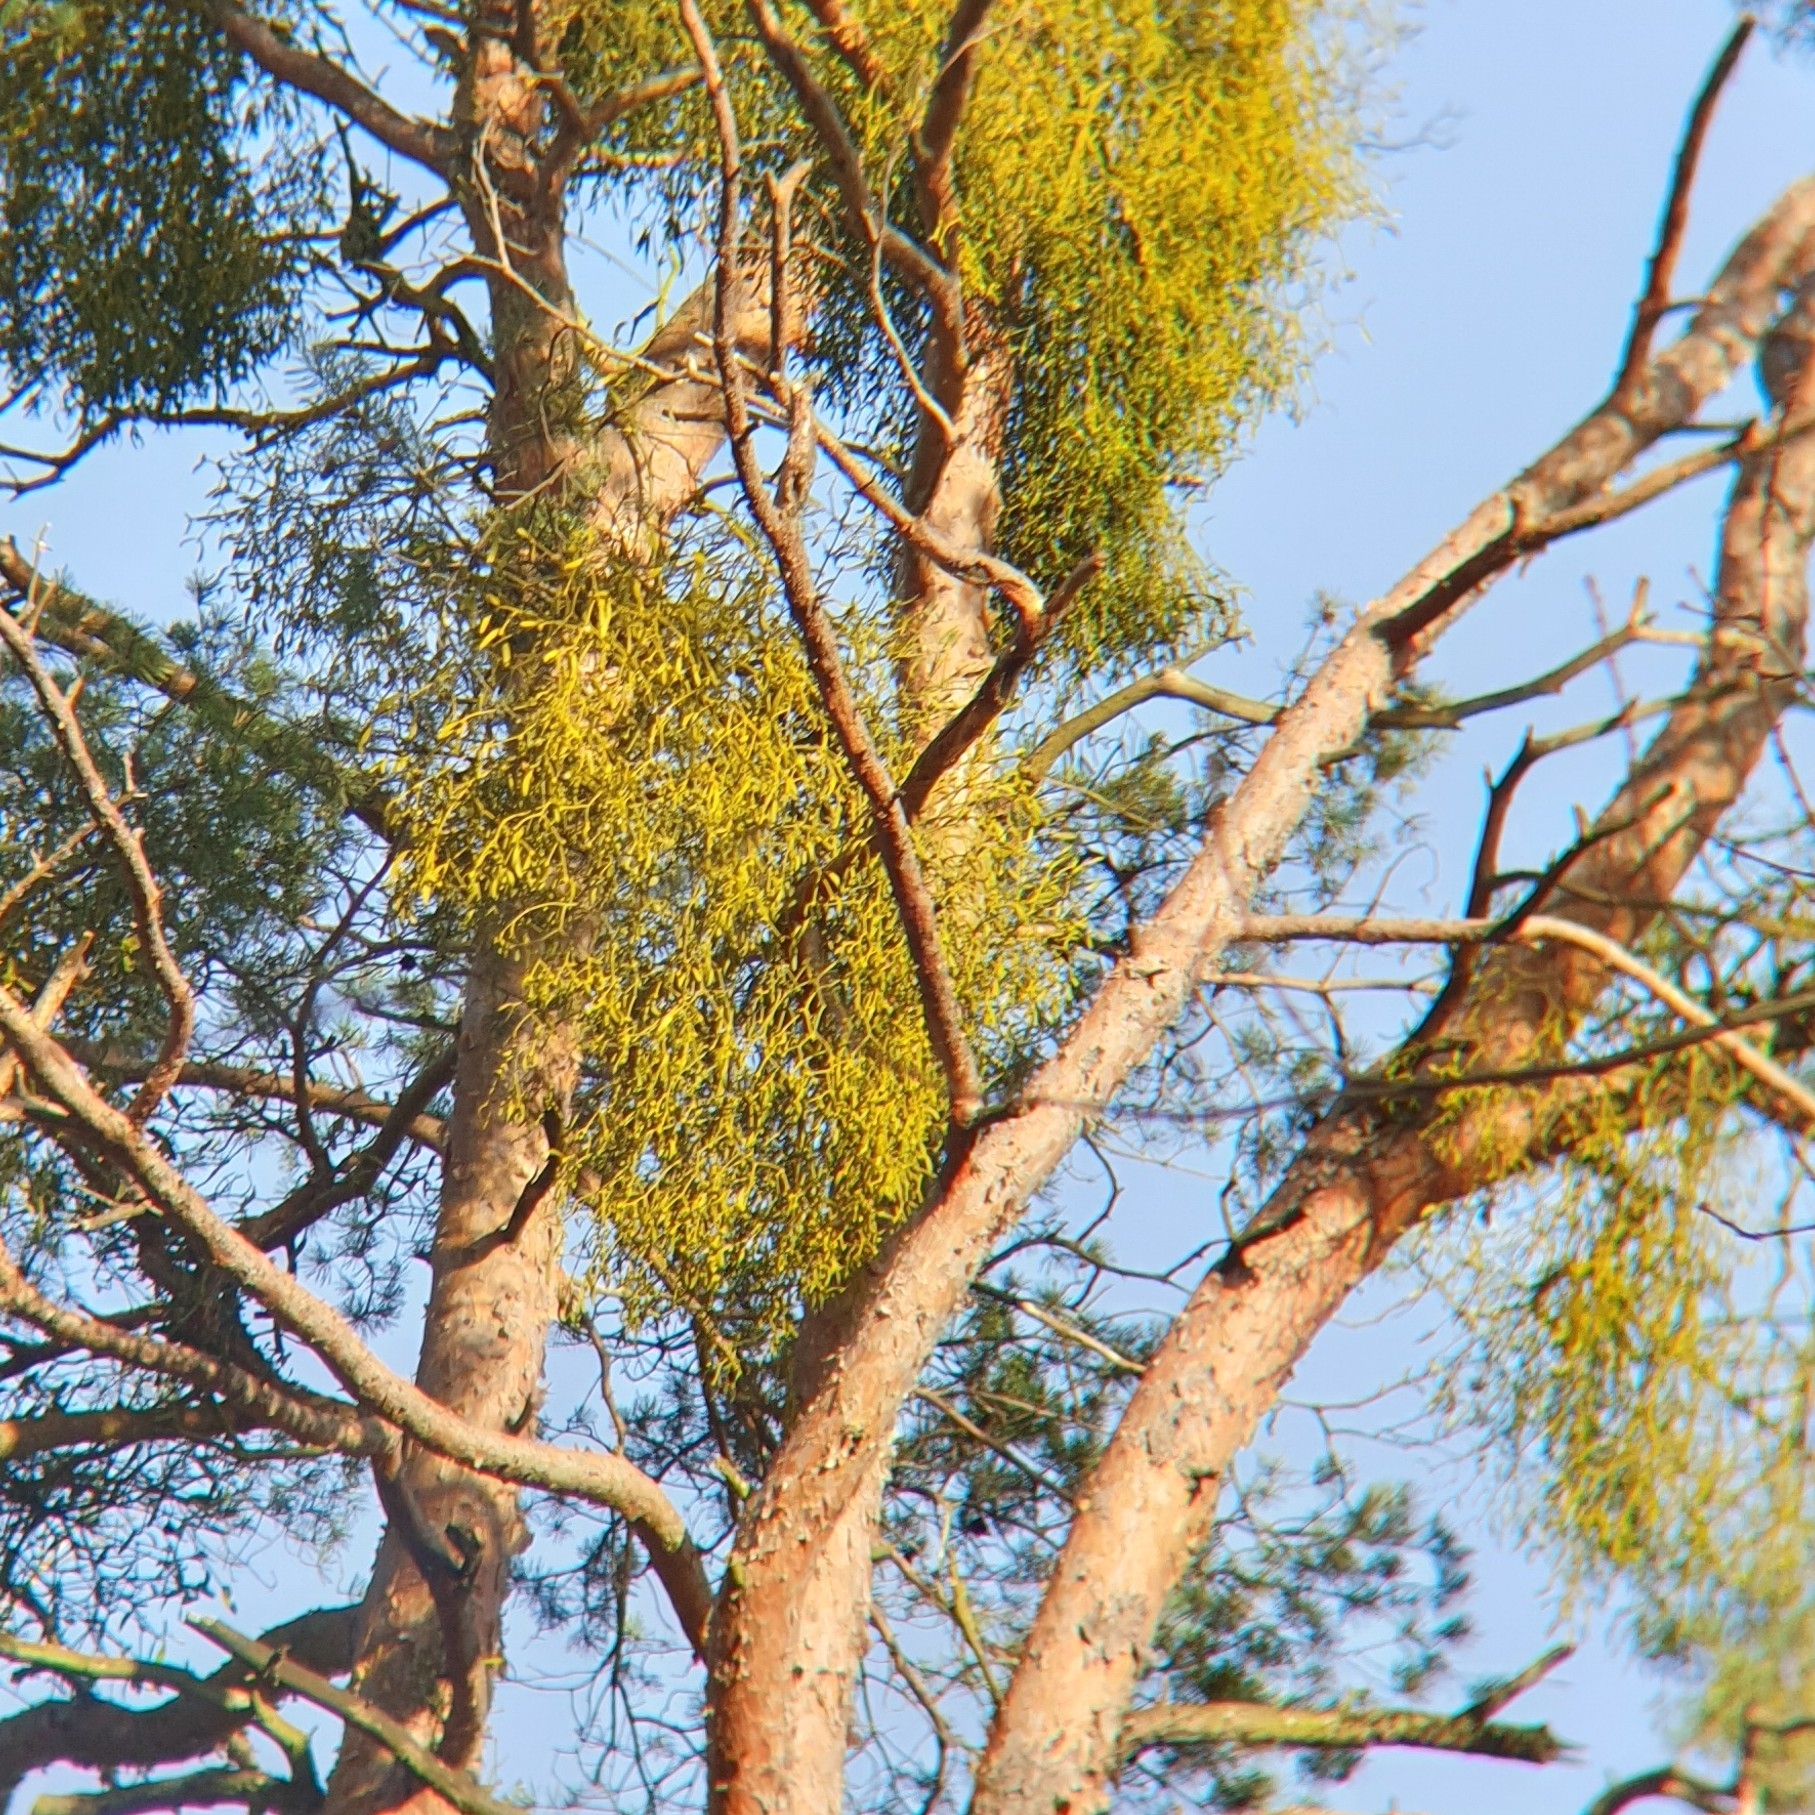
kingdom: Plantae
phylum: Tracheophyta
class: Magnoliopsida
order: Santalales
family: Viscaceae
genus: Viscum
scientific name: Viscum laxum
